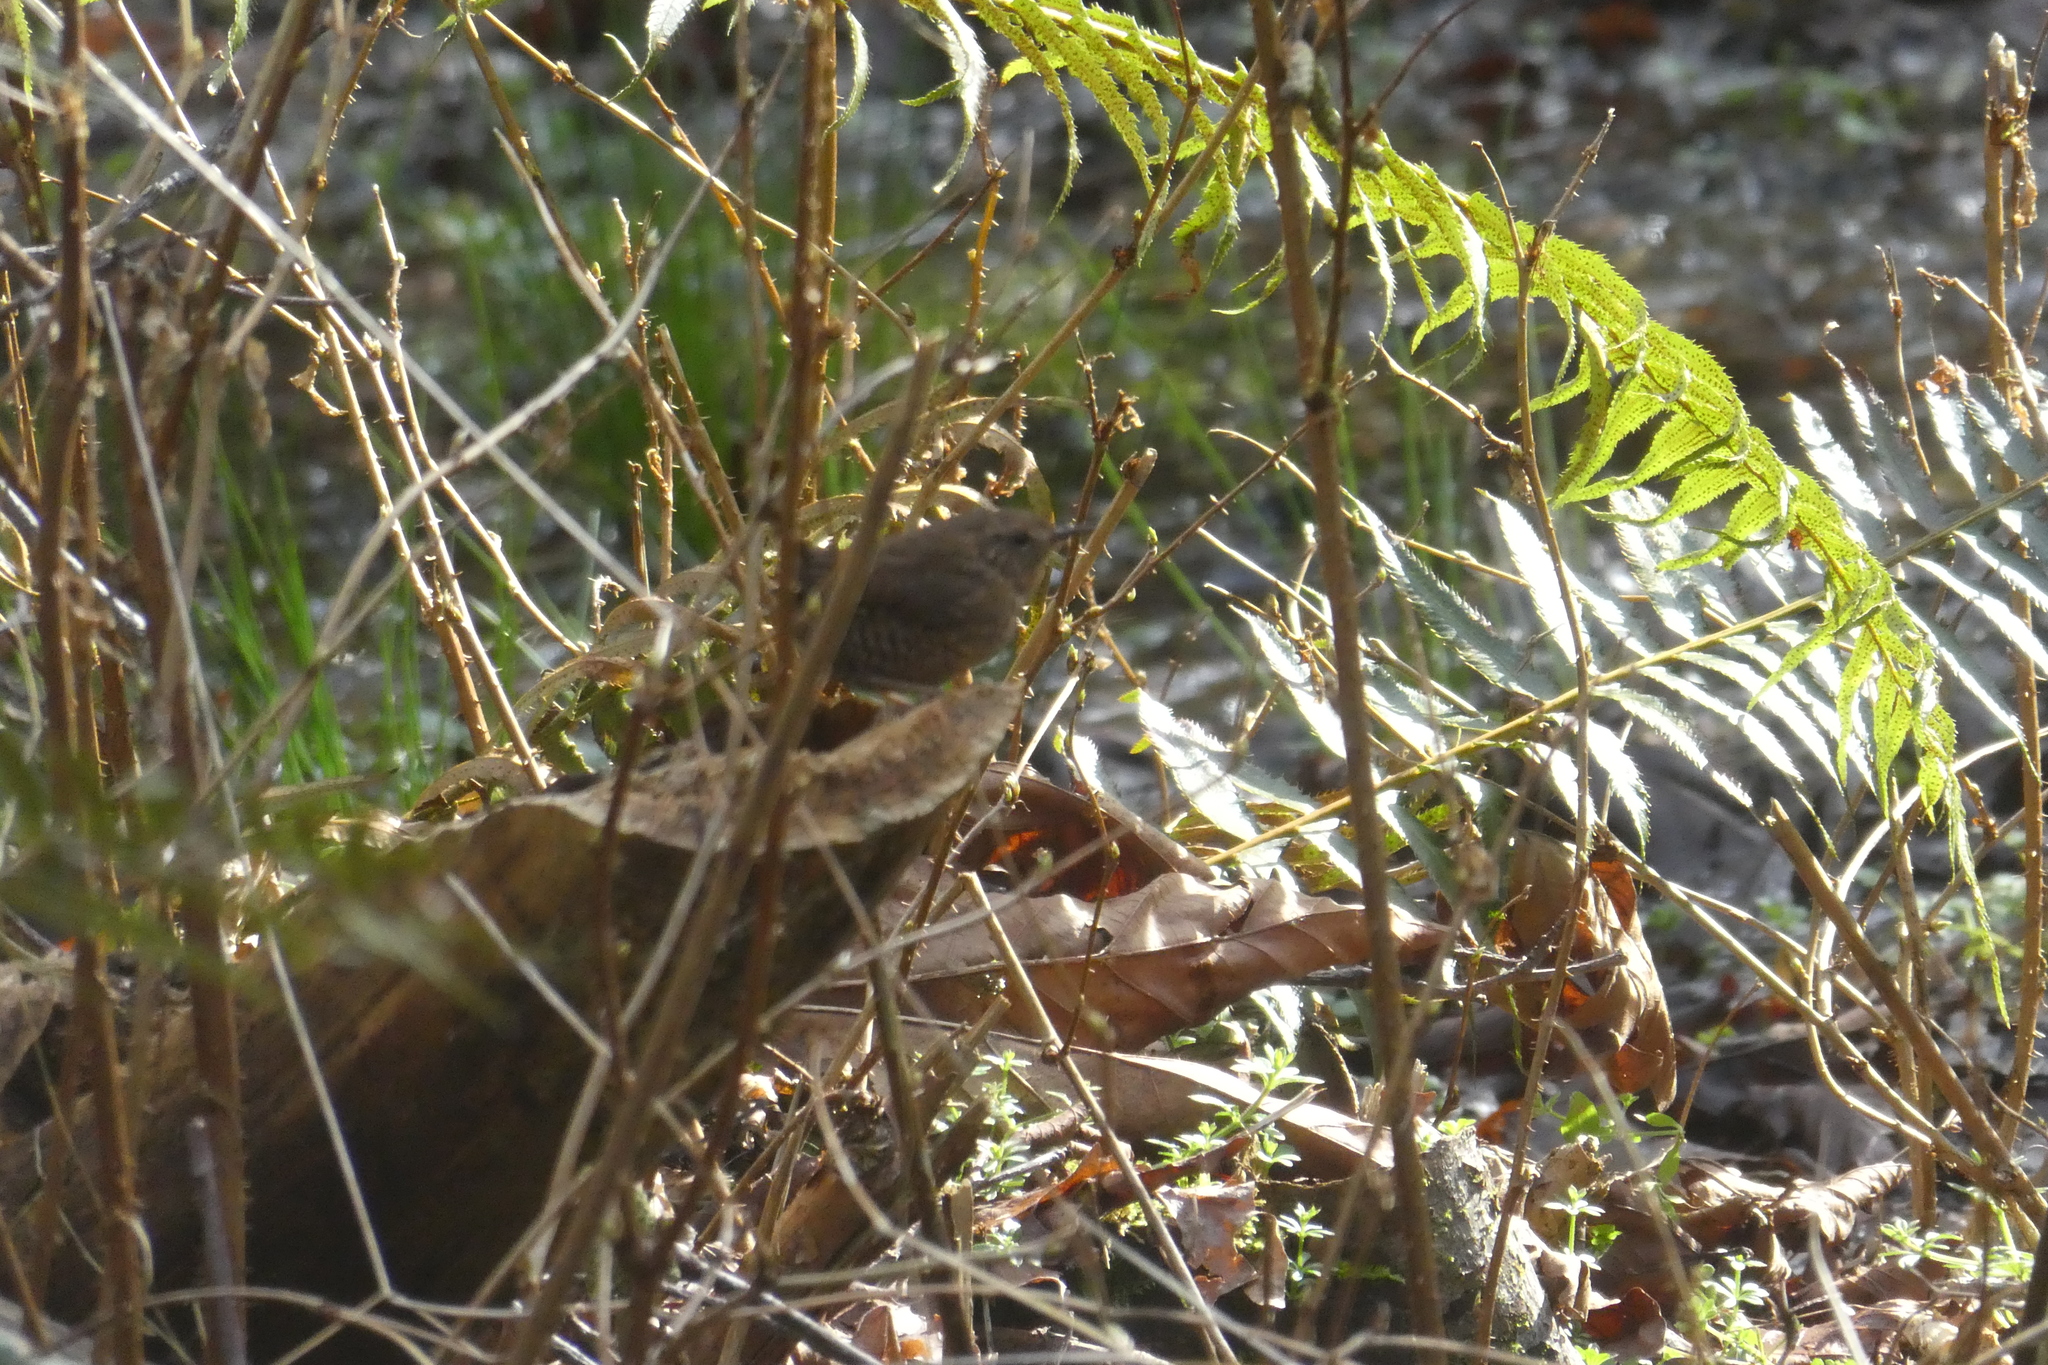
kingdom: Animalia
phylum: Chordata
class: Aves
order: Passeriformes
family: Troglodytidae
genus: Troglodytes
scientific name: Troglodytes pacificus
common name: Pacific wren
